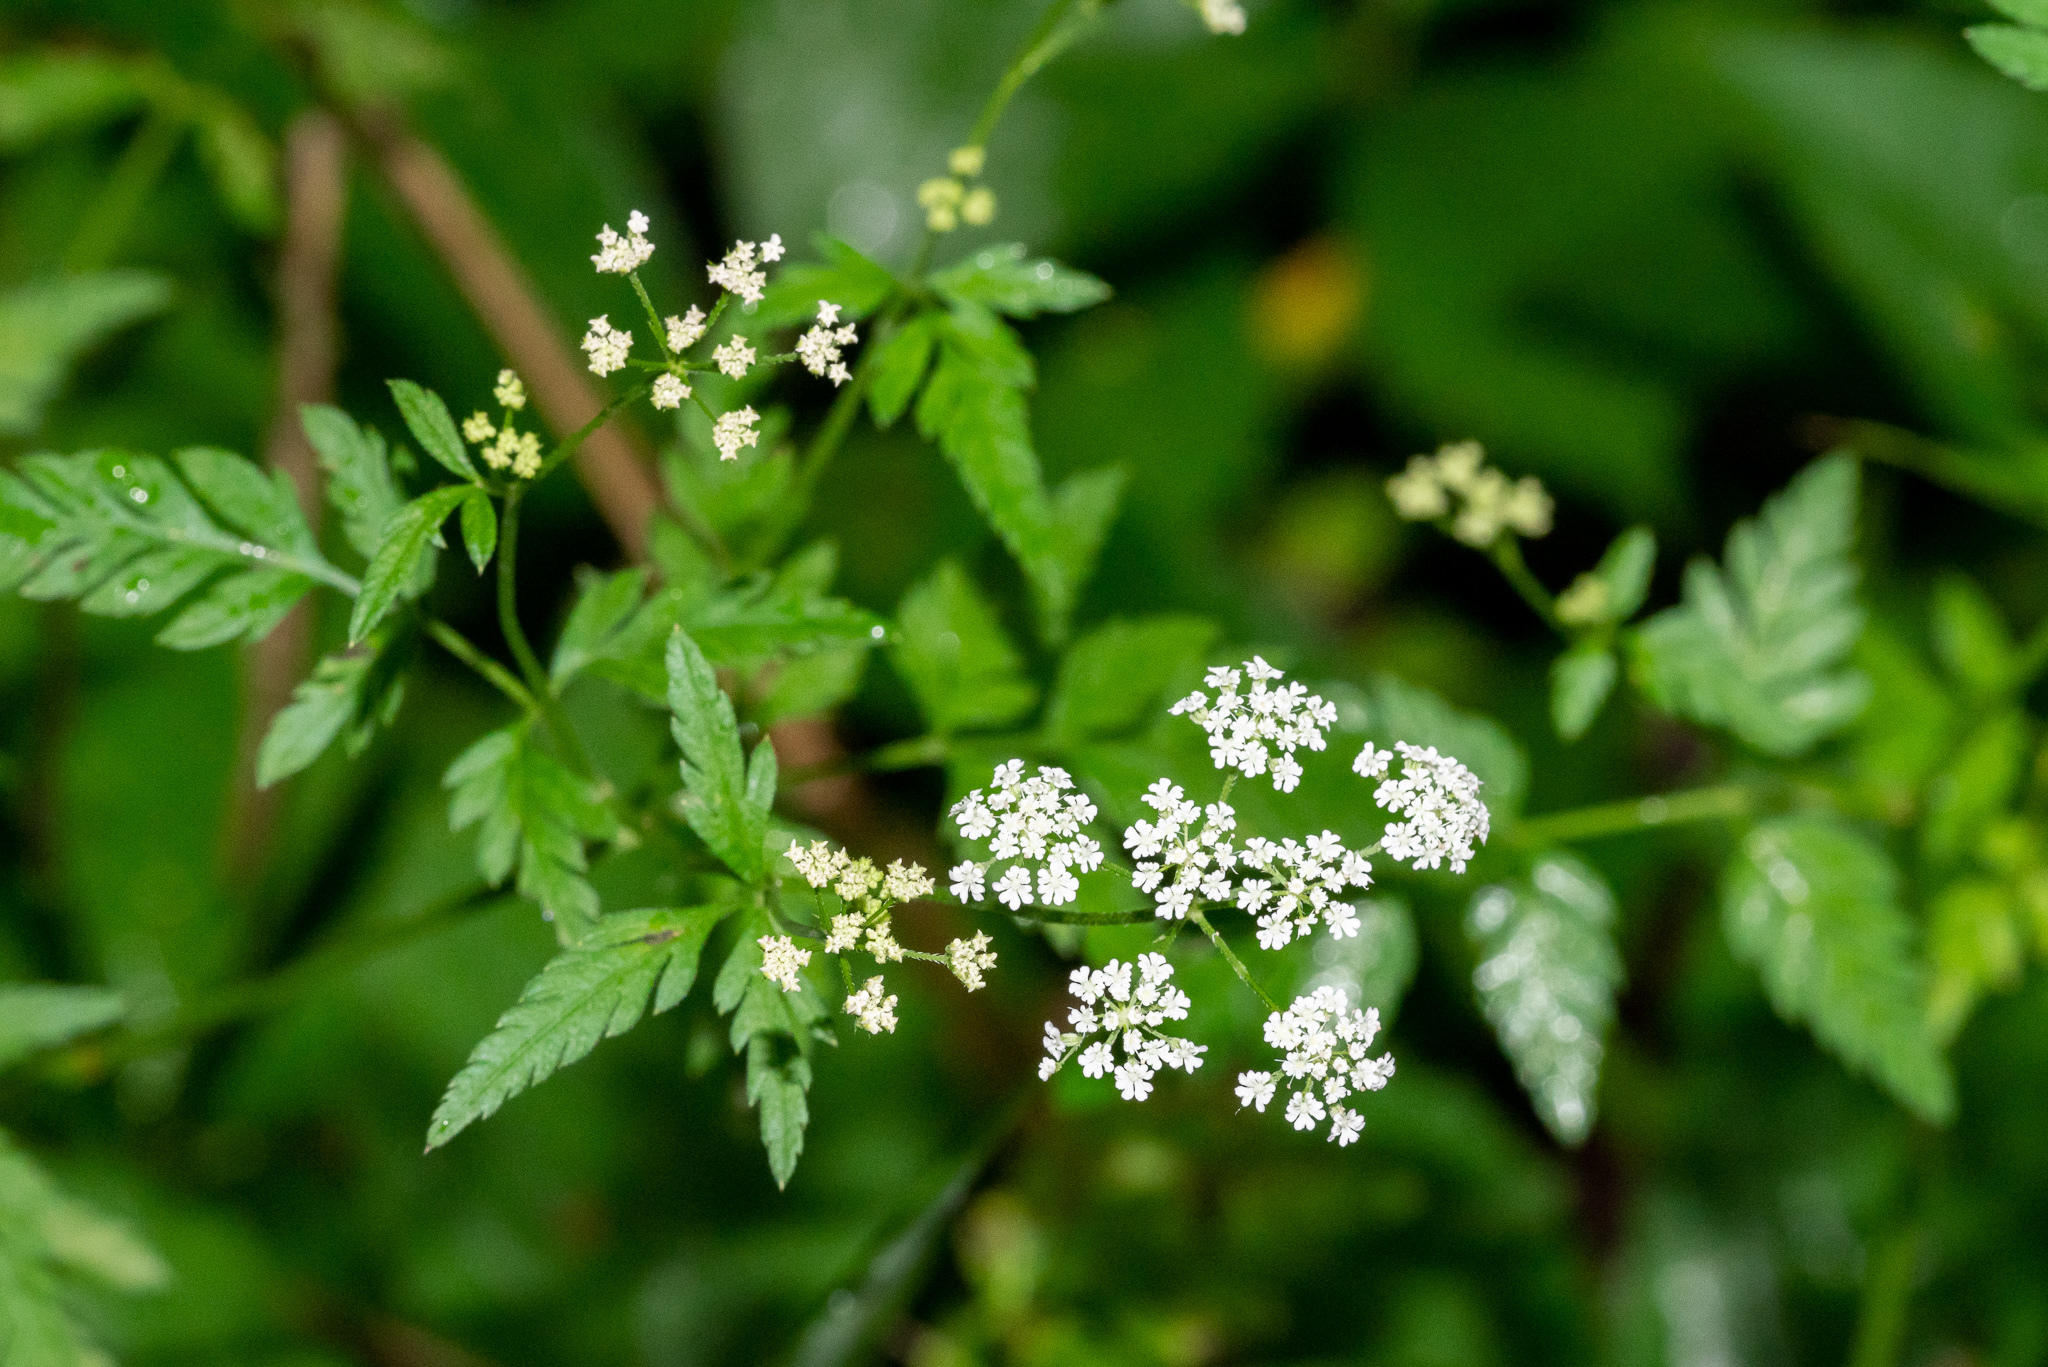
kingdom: Plantae
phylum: Tracheophyta
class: Magnoliopsida
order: Apiales
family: Apiaceae
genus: Torilis
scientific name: Torilis japonica
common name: Upright hedge-parsley
